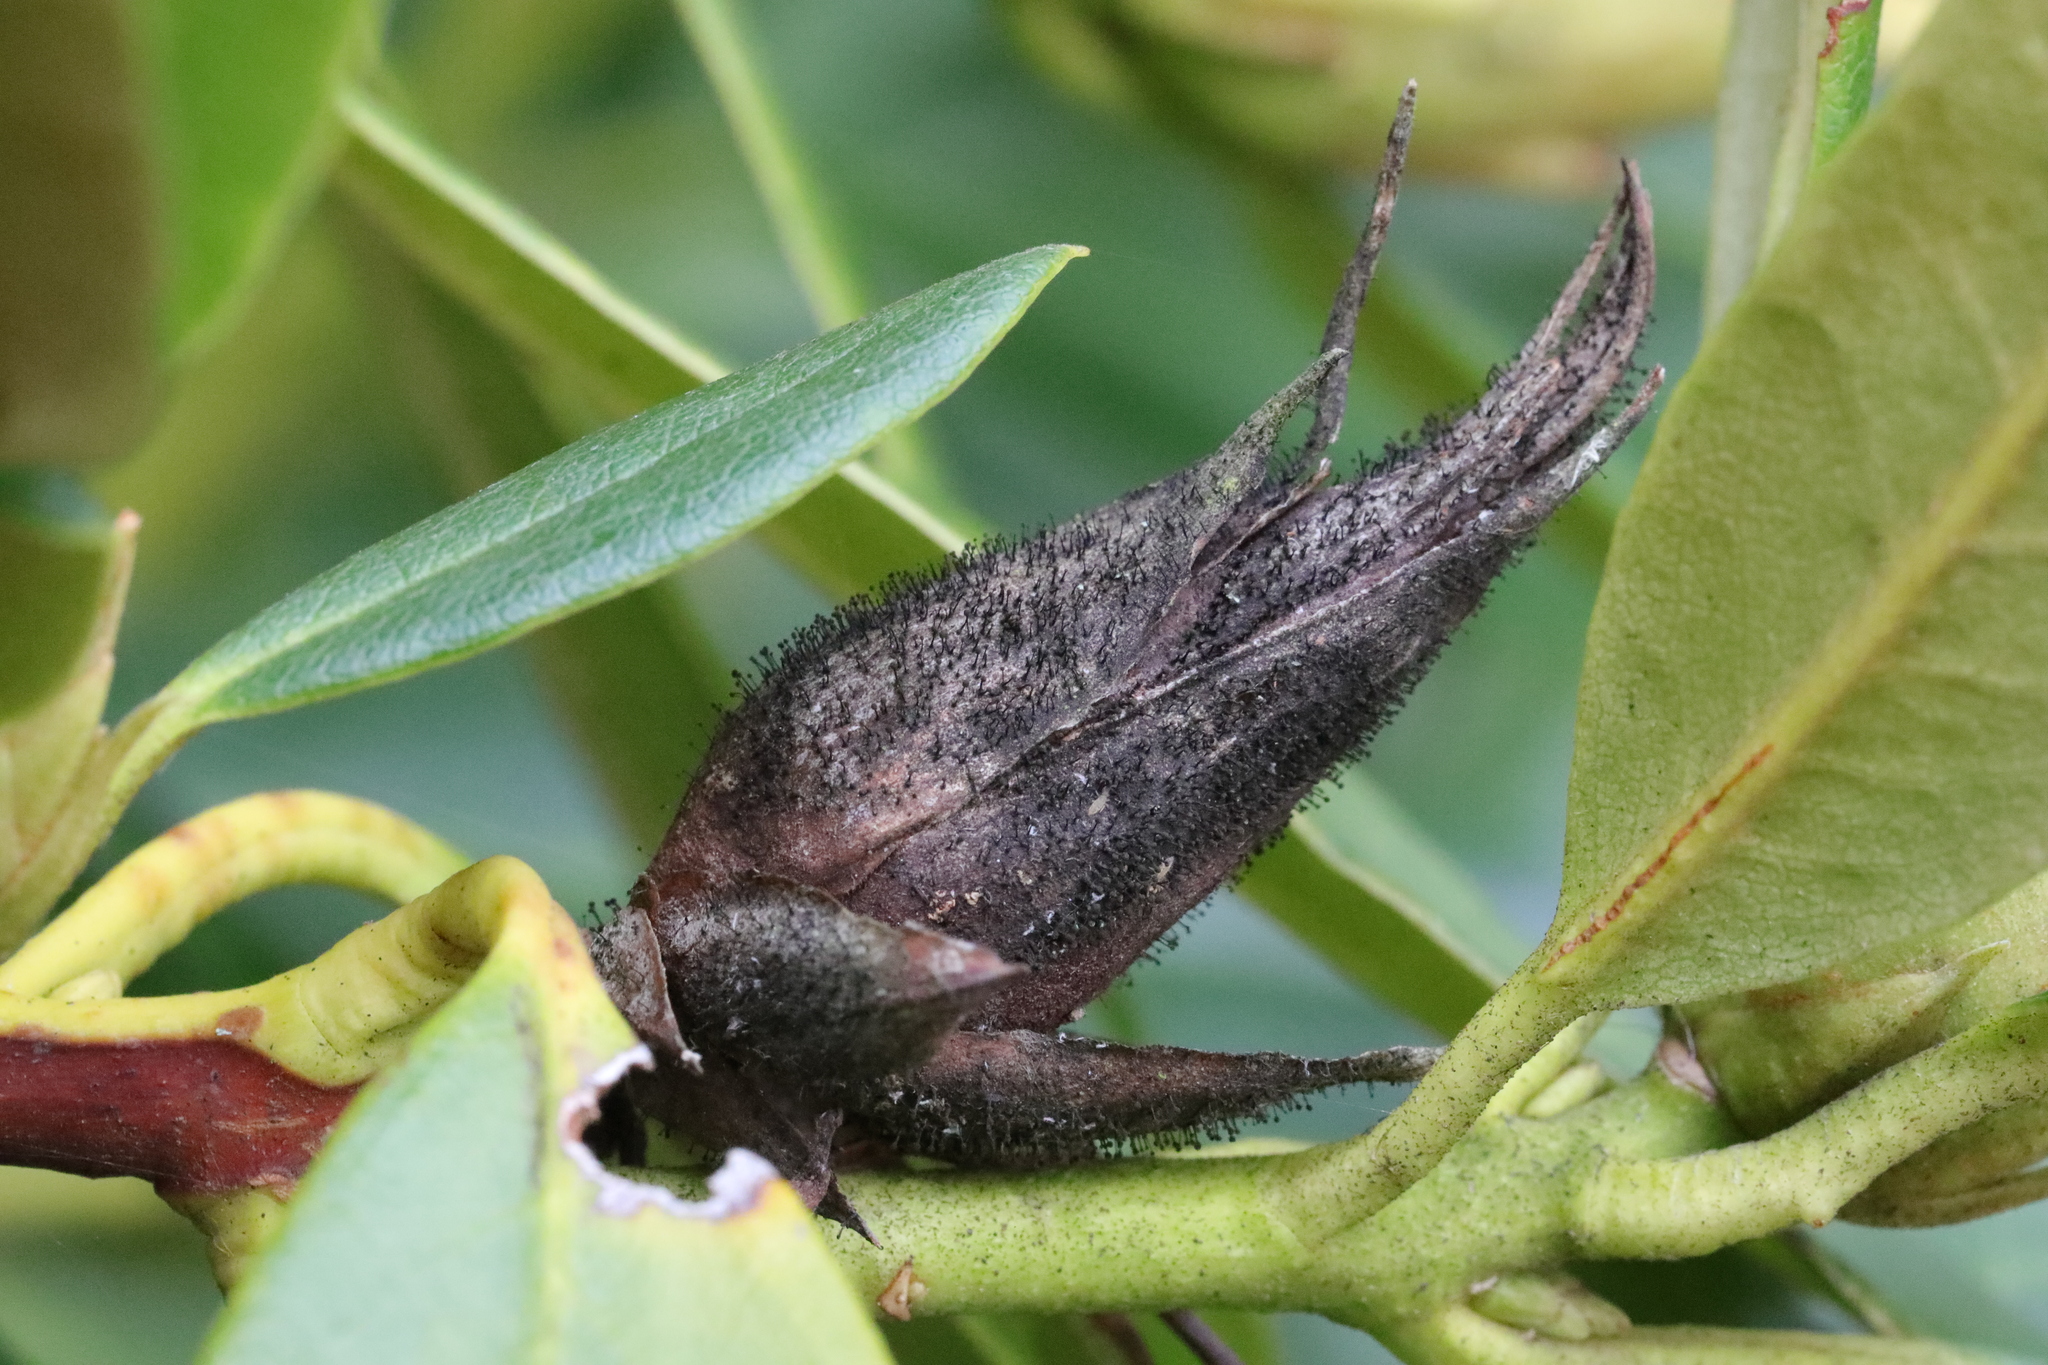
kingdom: Fungi
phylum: Ascomycota
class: Dothideomycetes
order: Pleosporales
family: Melanommataceae
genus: Seifertia
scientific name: Seifertia azaleae
